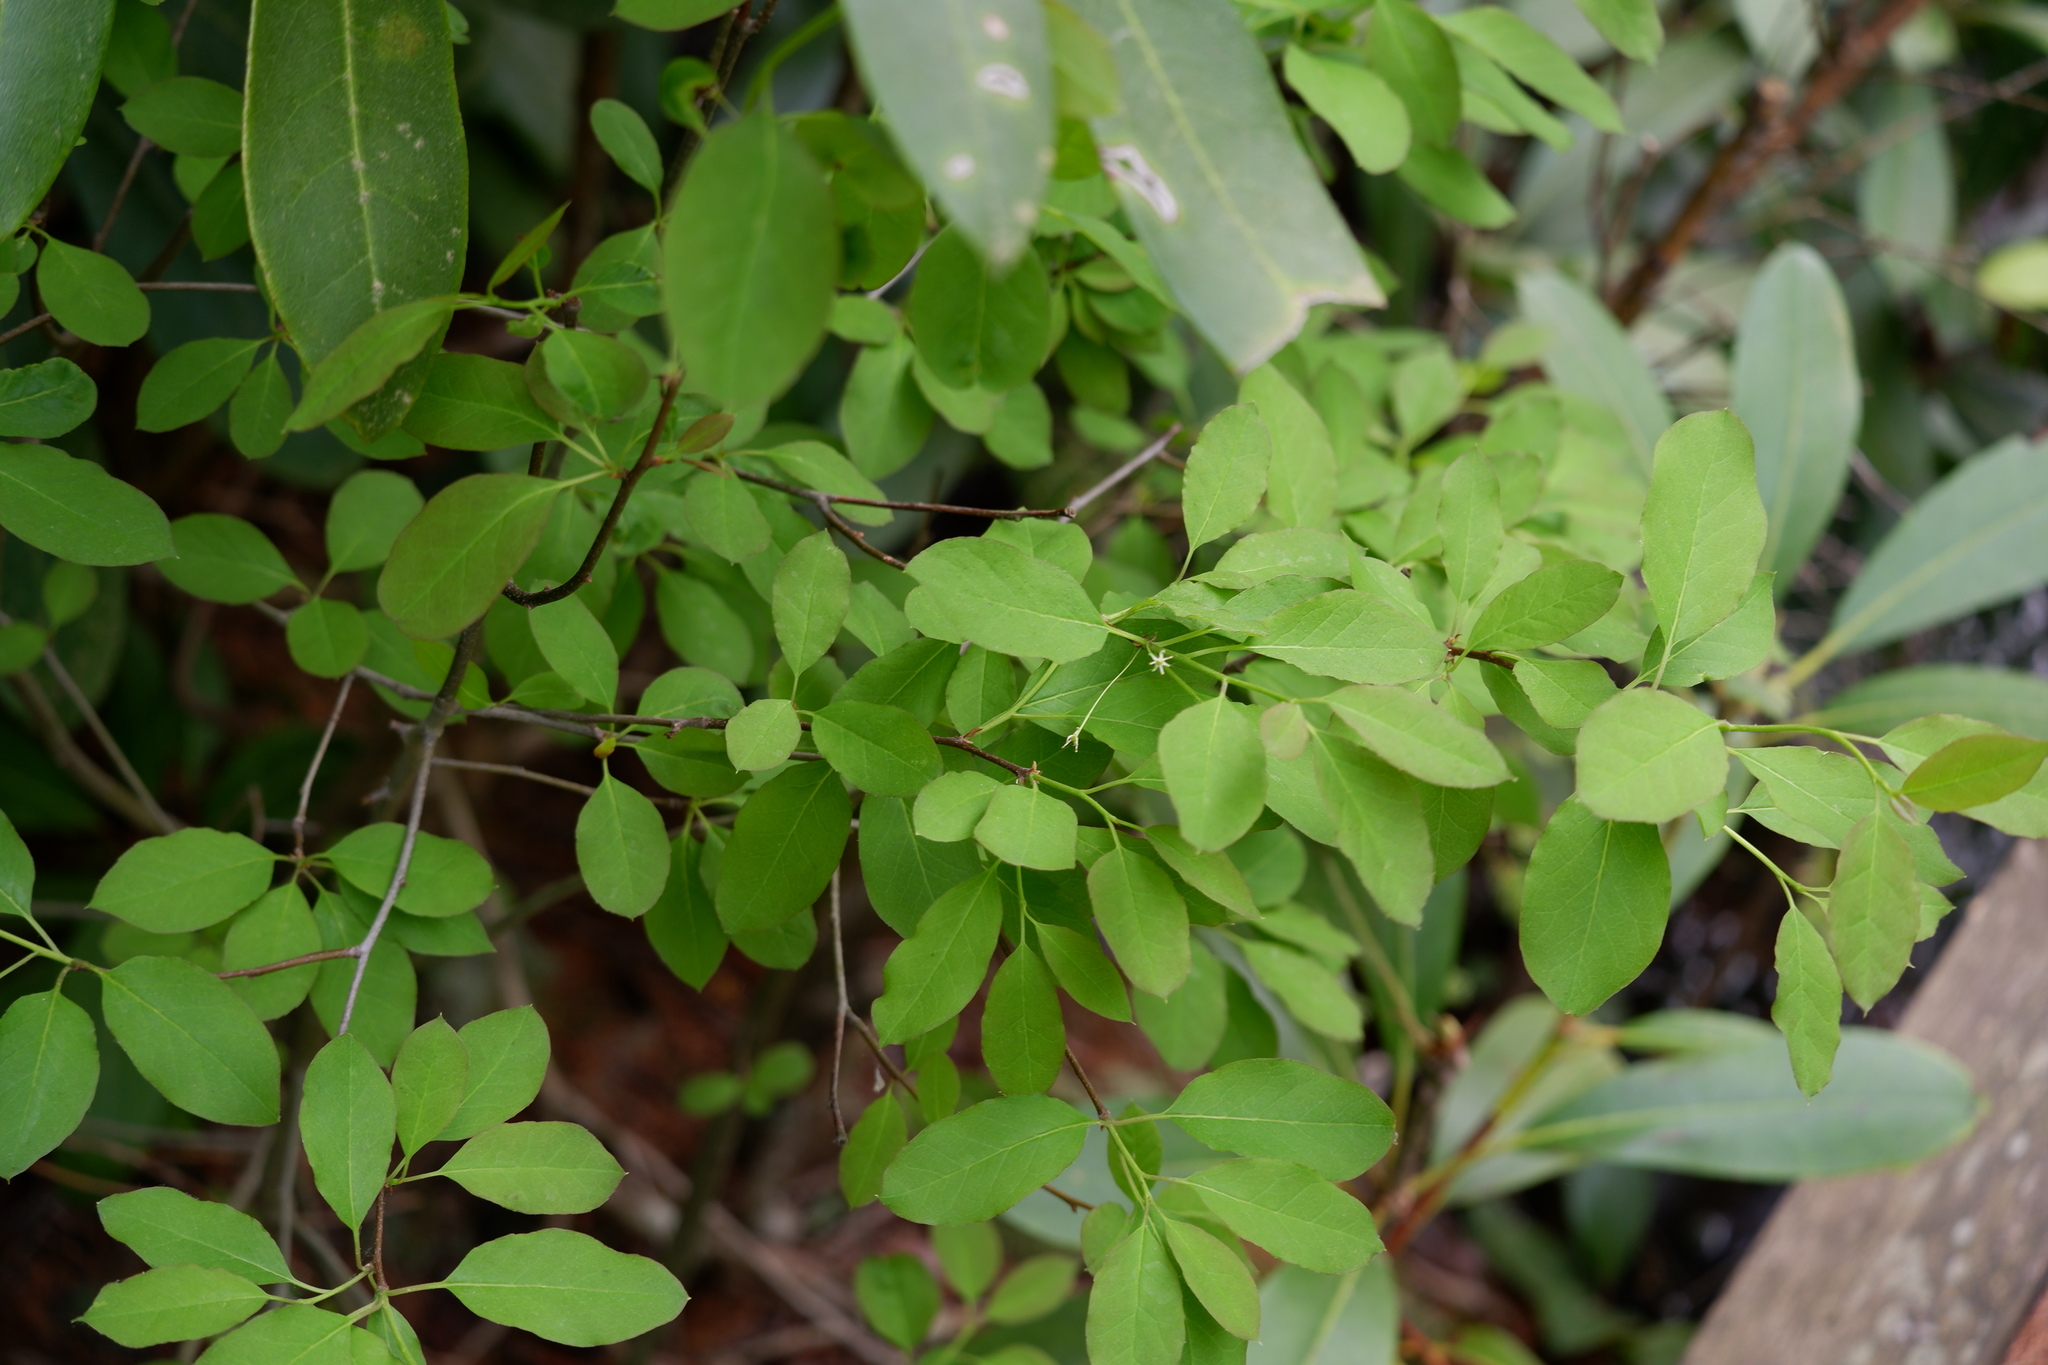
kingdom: Plantae
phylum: Tracheophyta
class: Magnoliopsida
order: Aquifoliales
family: Aquifoliaceae
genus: Ilex
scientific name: Ilex mucronata
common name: Catberry
